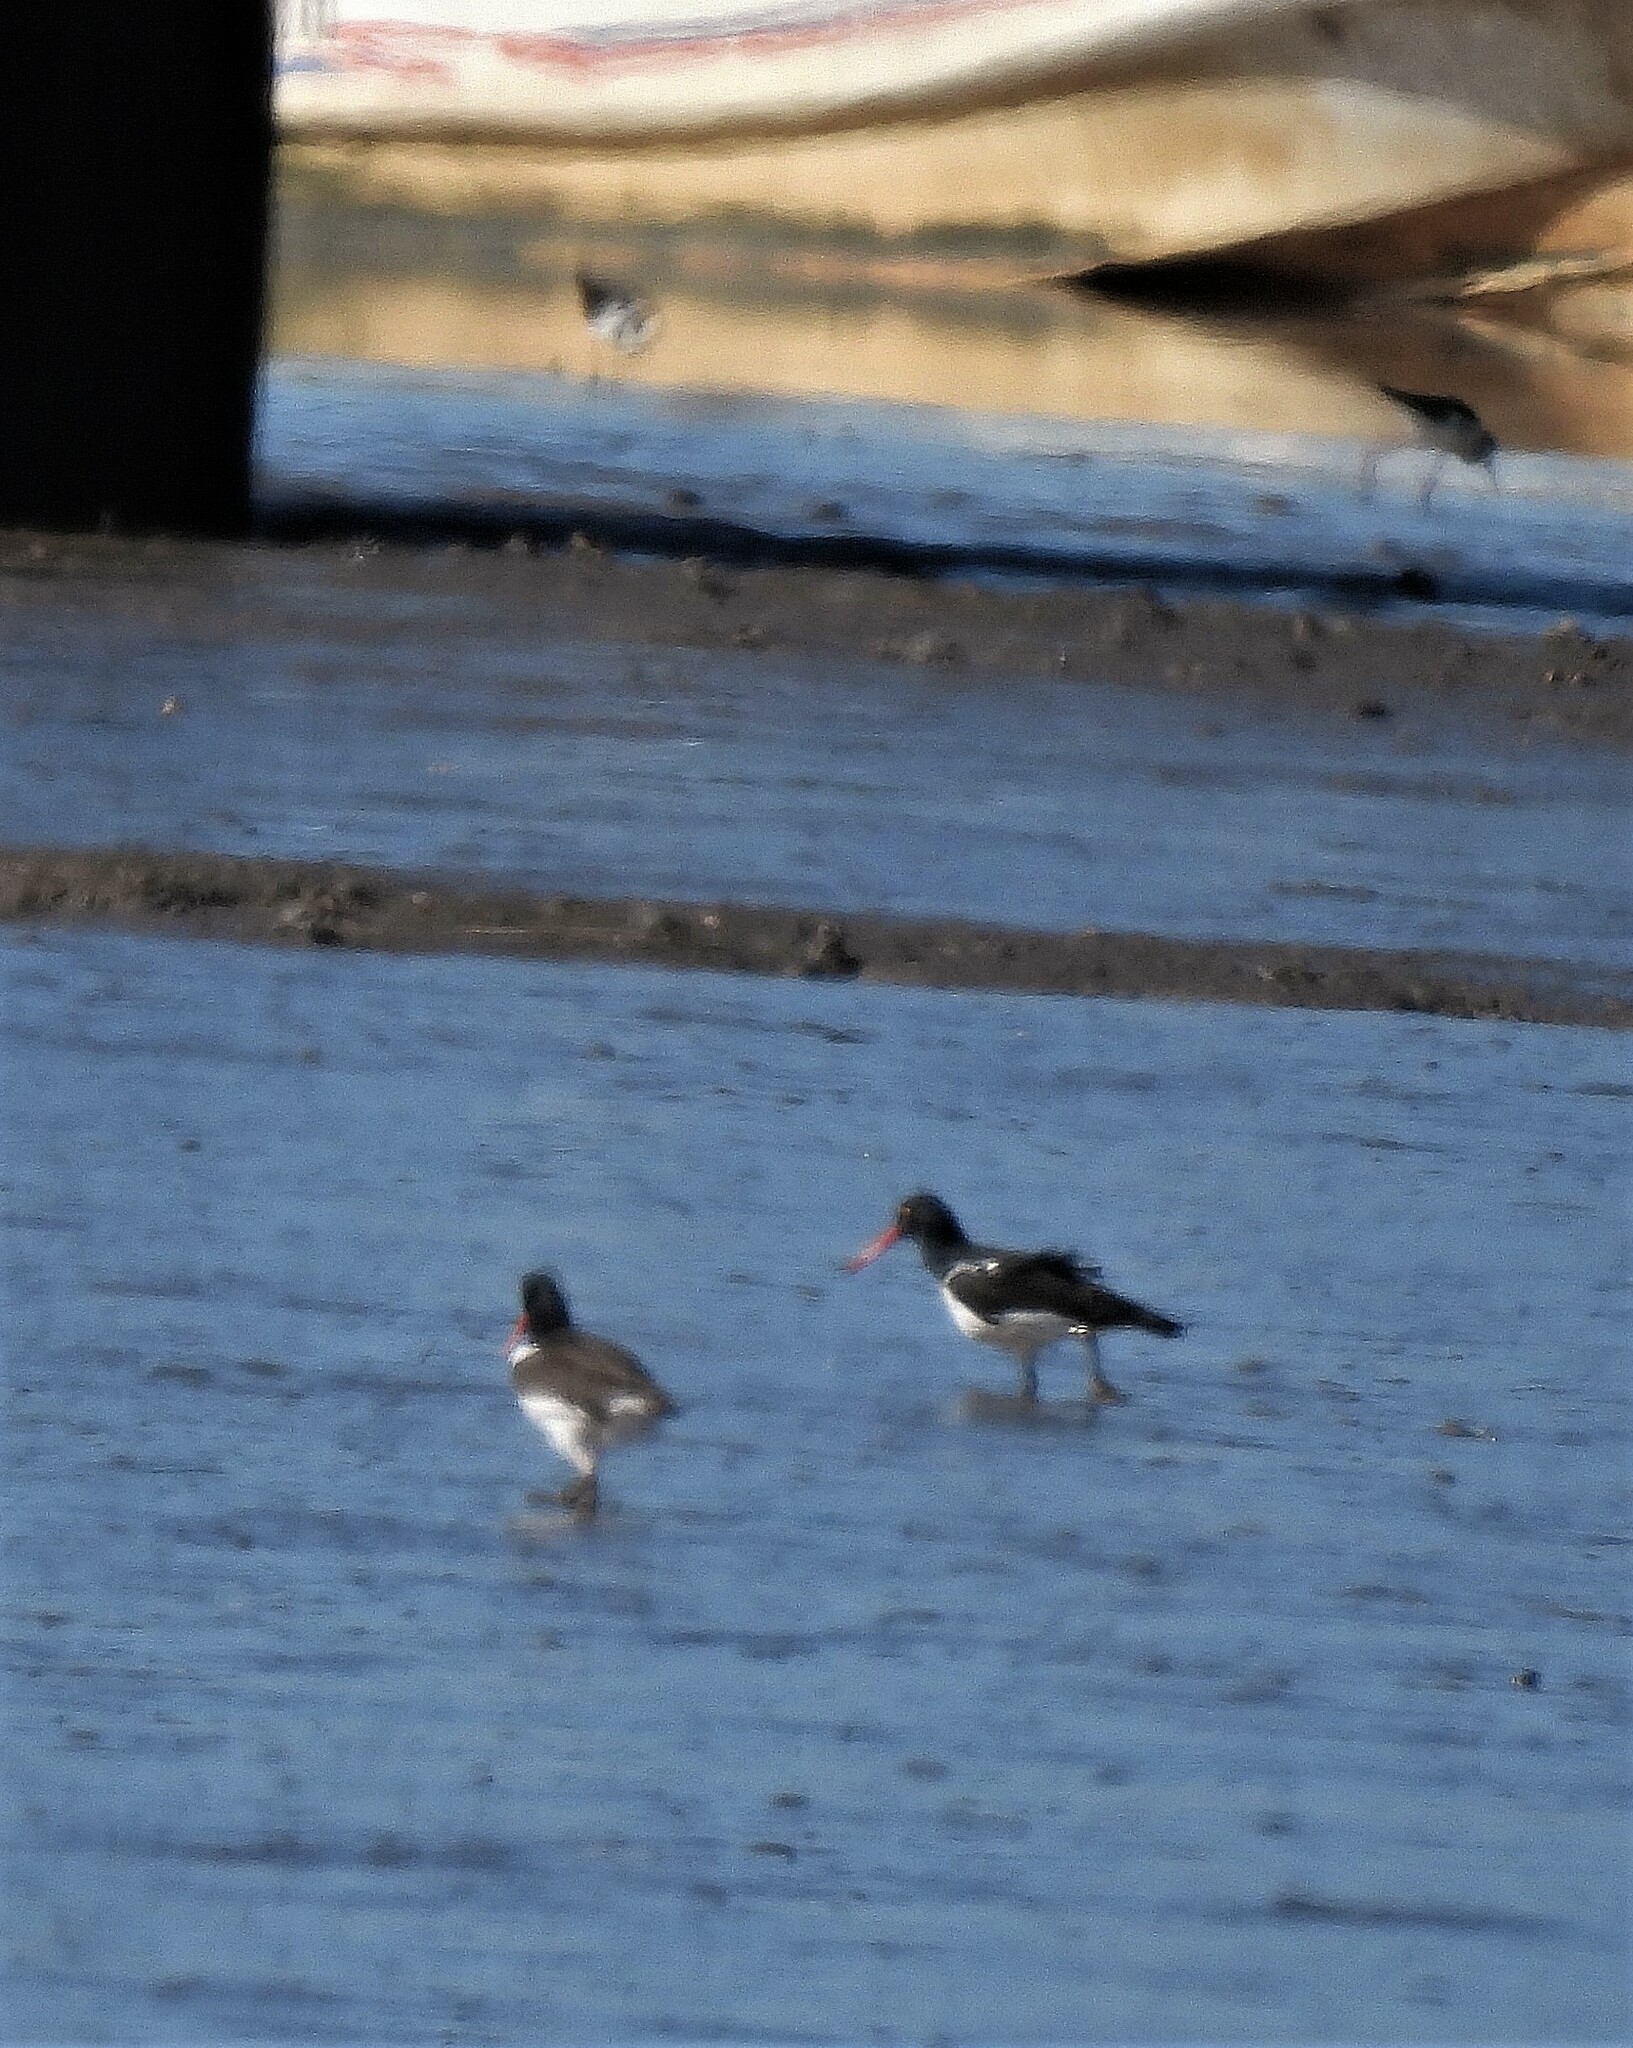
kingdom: Animalia
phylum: Chordata
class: Aves
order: Charadriiformes
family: Haematopodidae
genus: Haematopus
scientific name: Haematopus palliatus
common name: American oystercatcher
